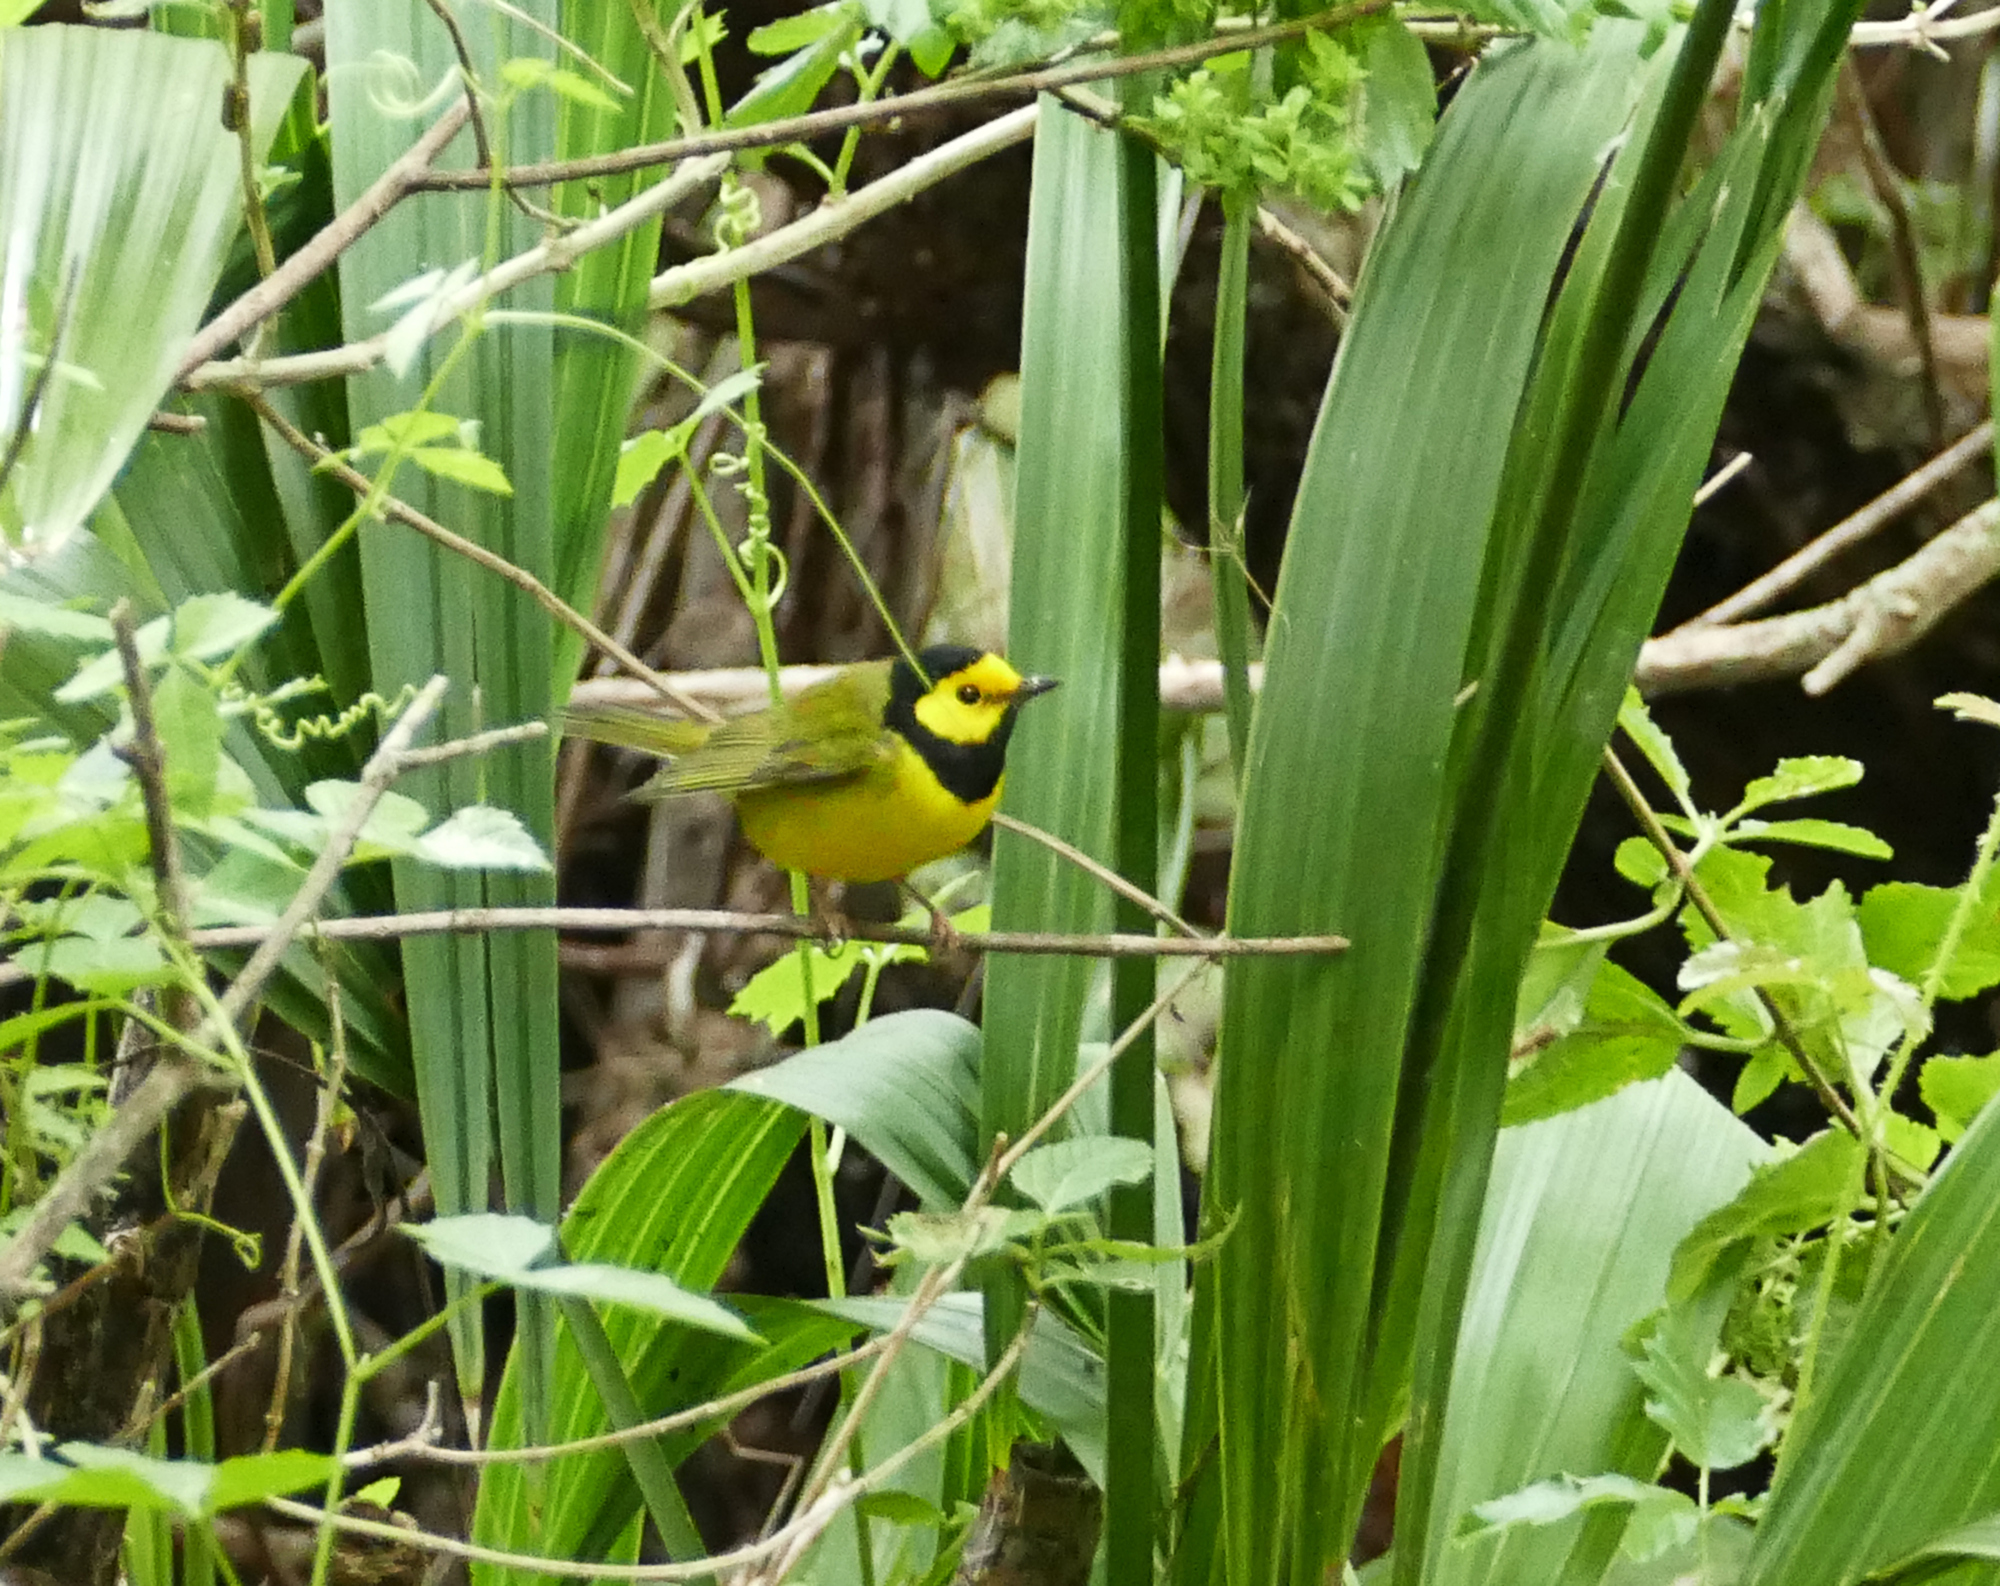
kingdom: Animalia
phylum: Chordata
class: Aves
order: Passeriformes
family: Parulidae
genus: Setophaga
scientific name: Setophaga citrina
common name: Hooded warbler
